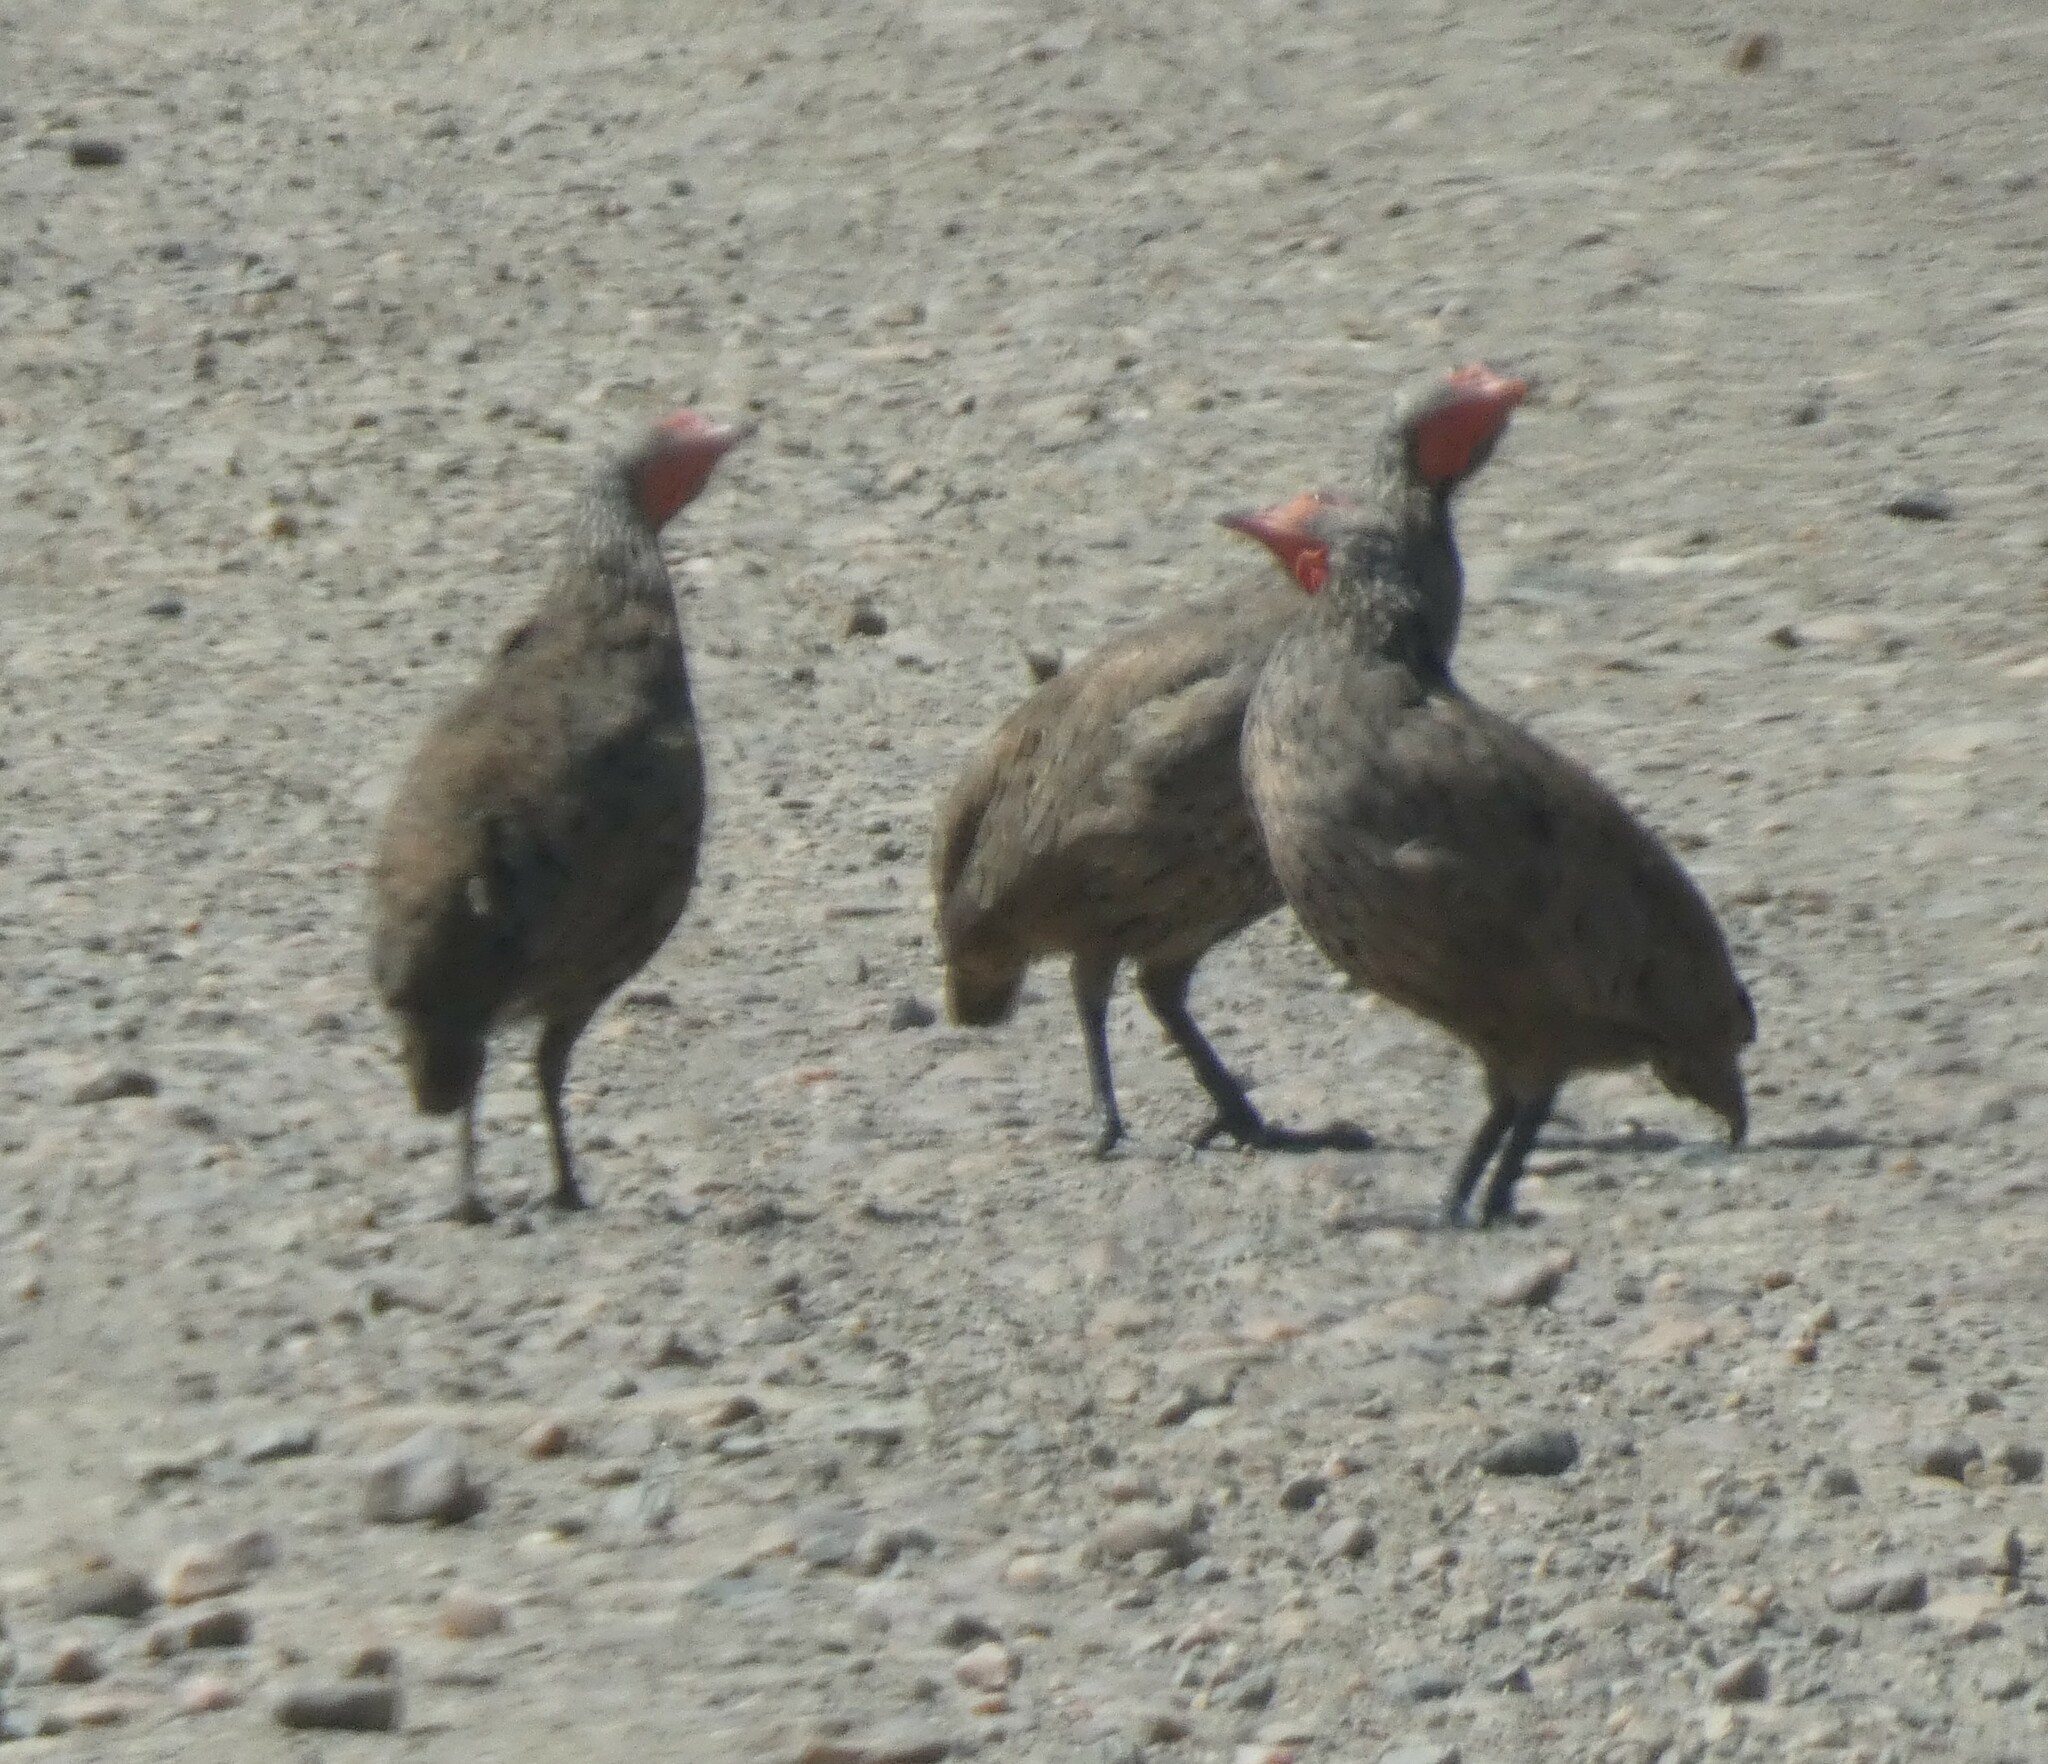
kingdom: Animalia
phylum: Chordata
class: Aves
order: Galliformes
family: Phasianidae
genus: Pternistis
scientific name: Pternistis swainsonii
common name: Swainson's spurfowl
